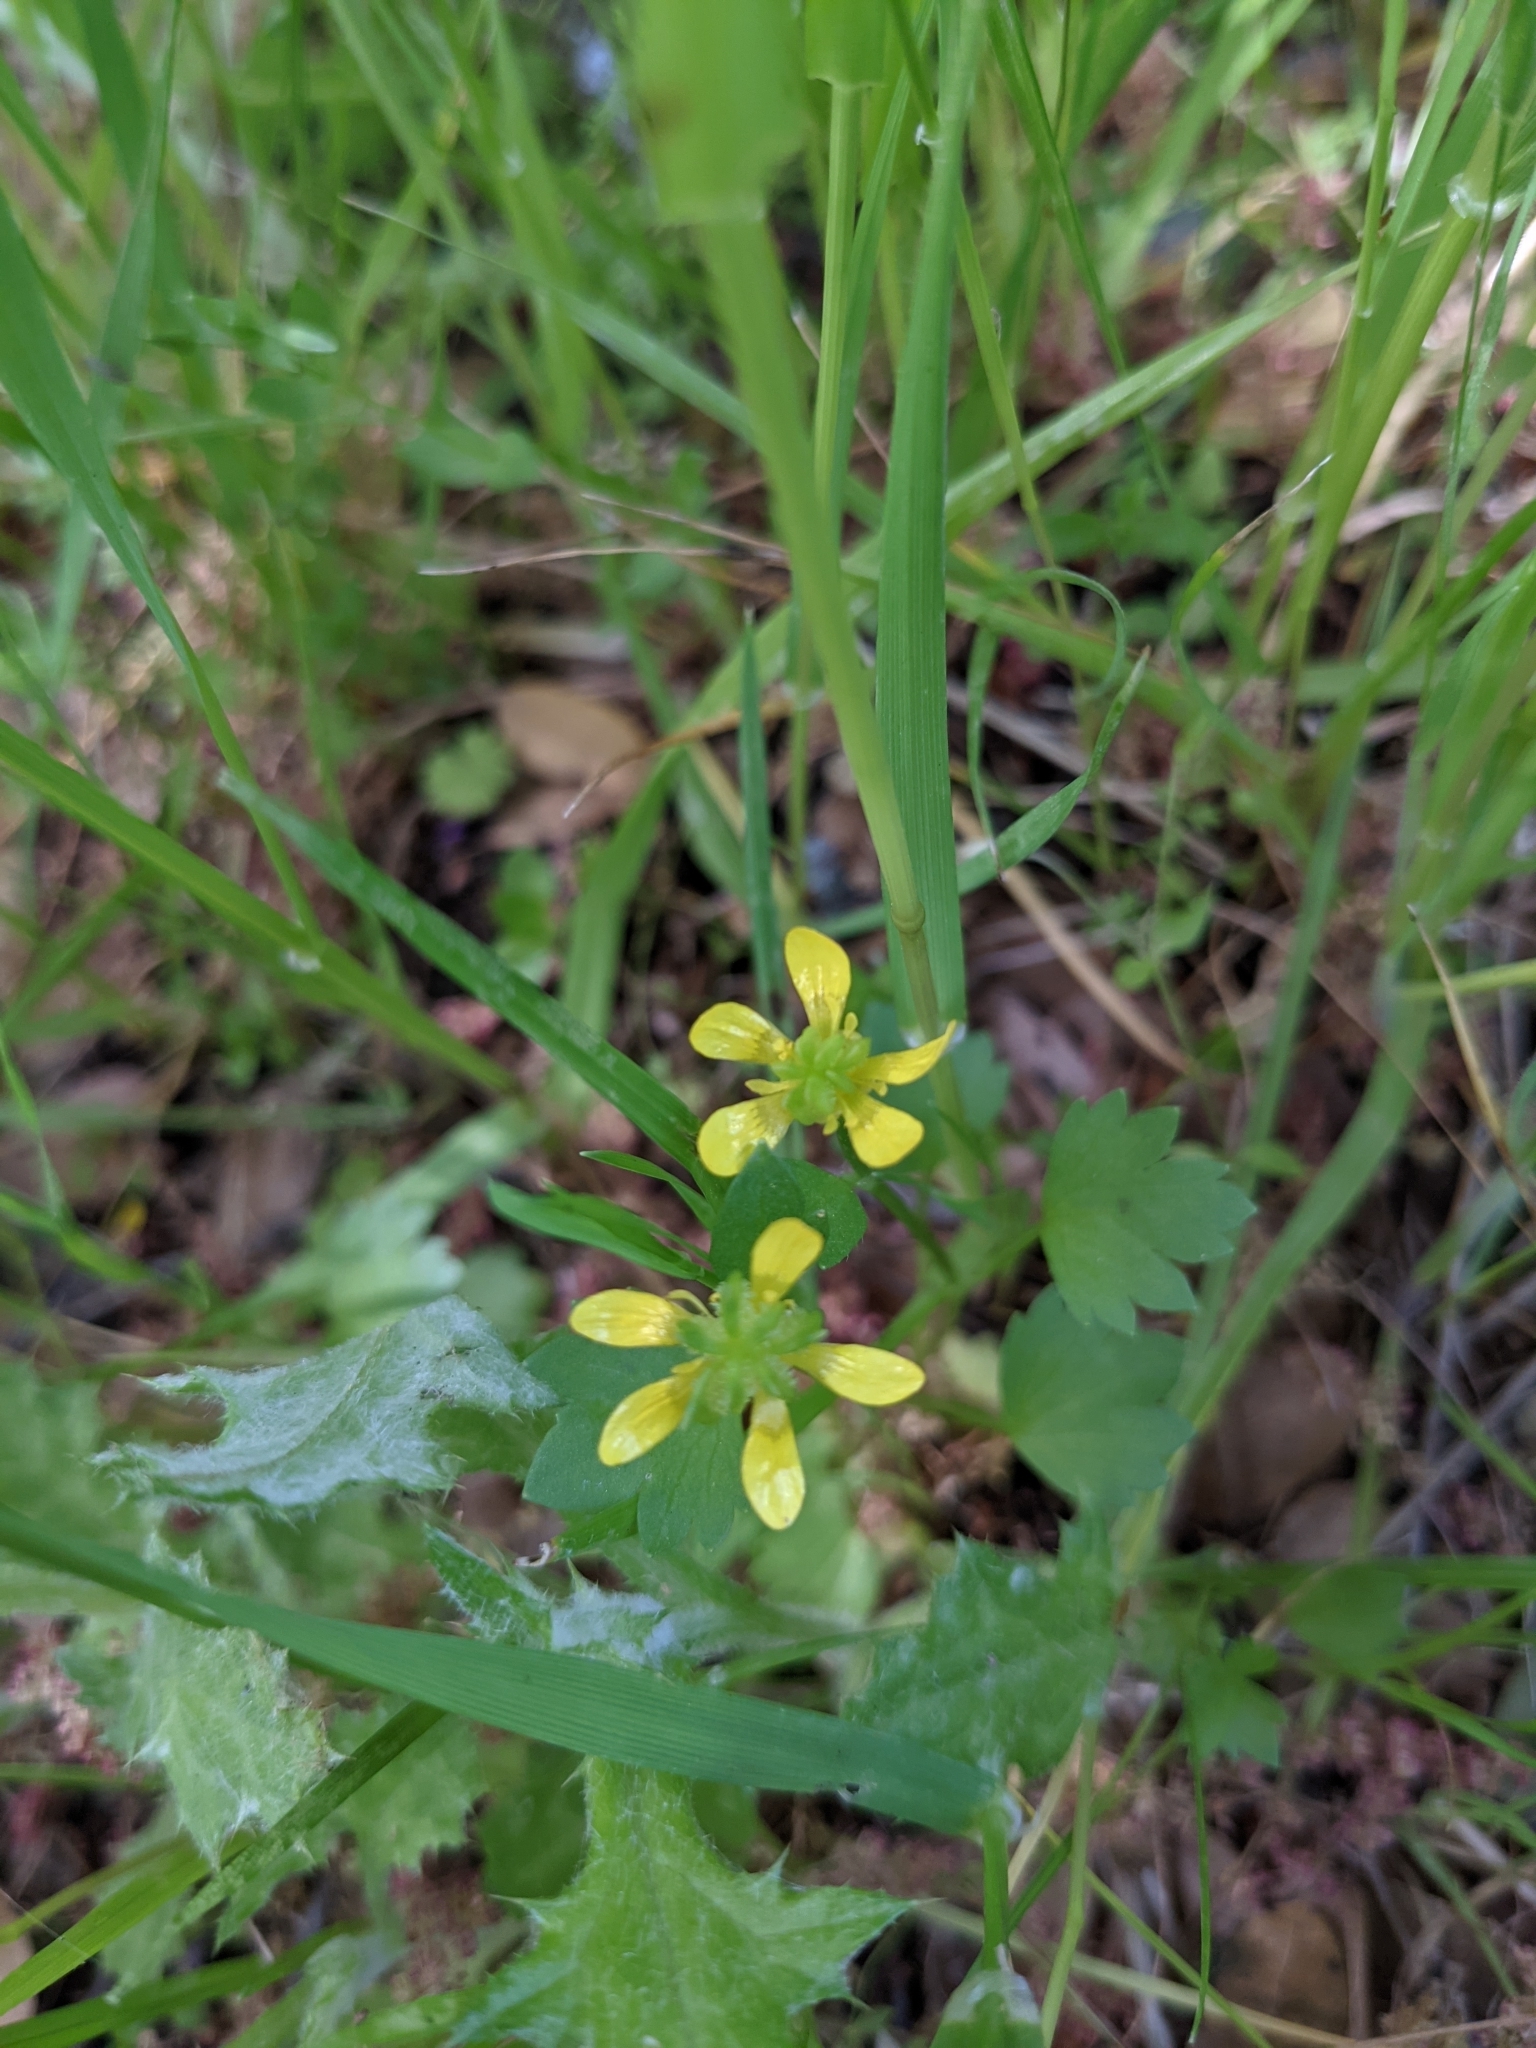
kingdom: Plantae
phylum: Tracheophyta
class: Magnoliopsida
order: Ranunculales
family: Ranunculaceae
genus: Ranunculus
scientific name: Ranunculus muricatus
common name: Rough-fruited buttercup
